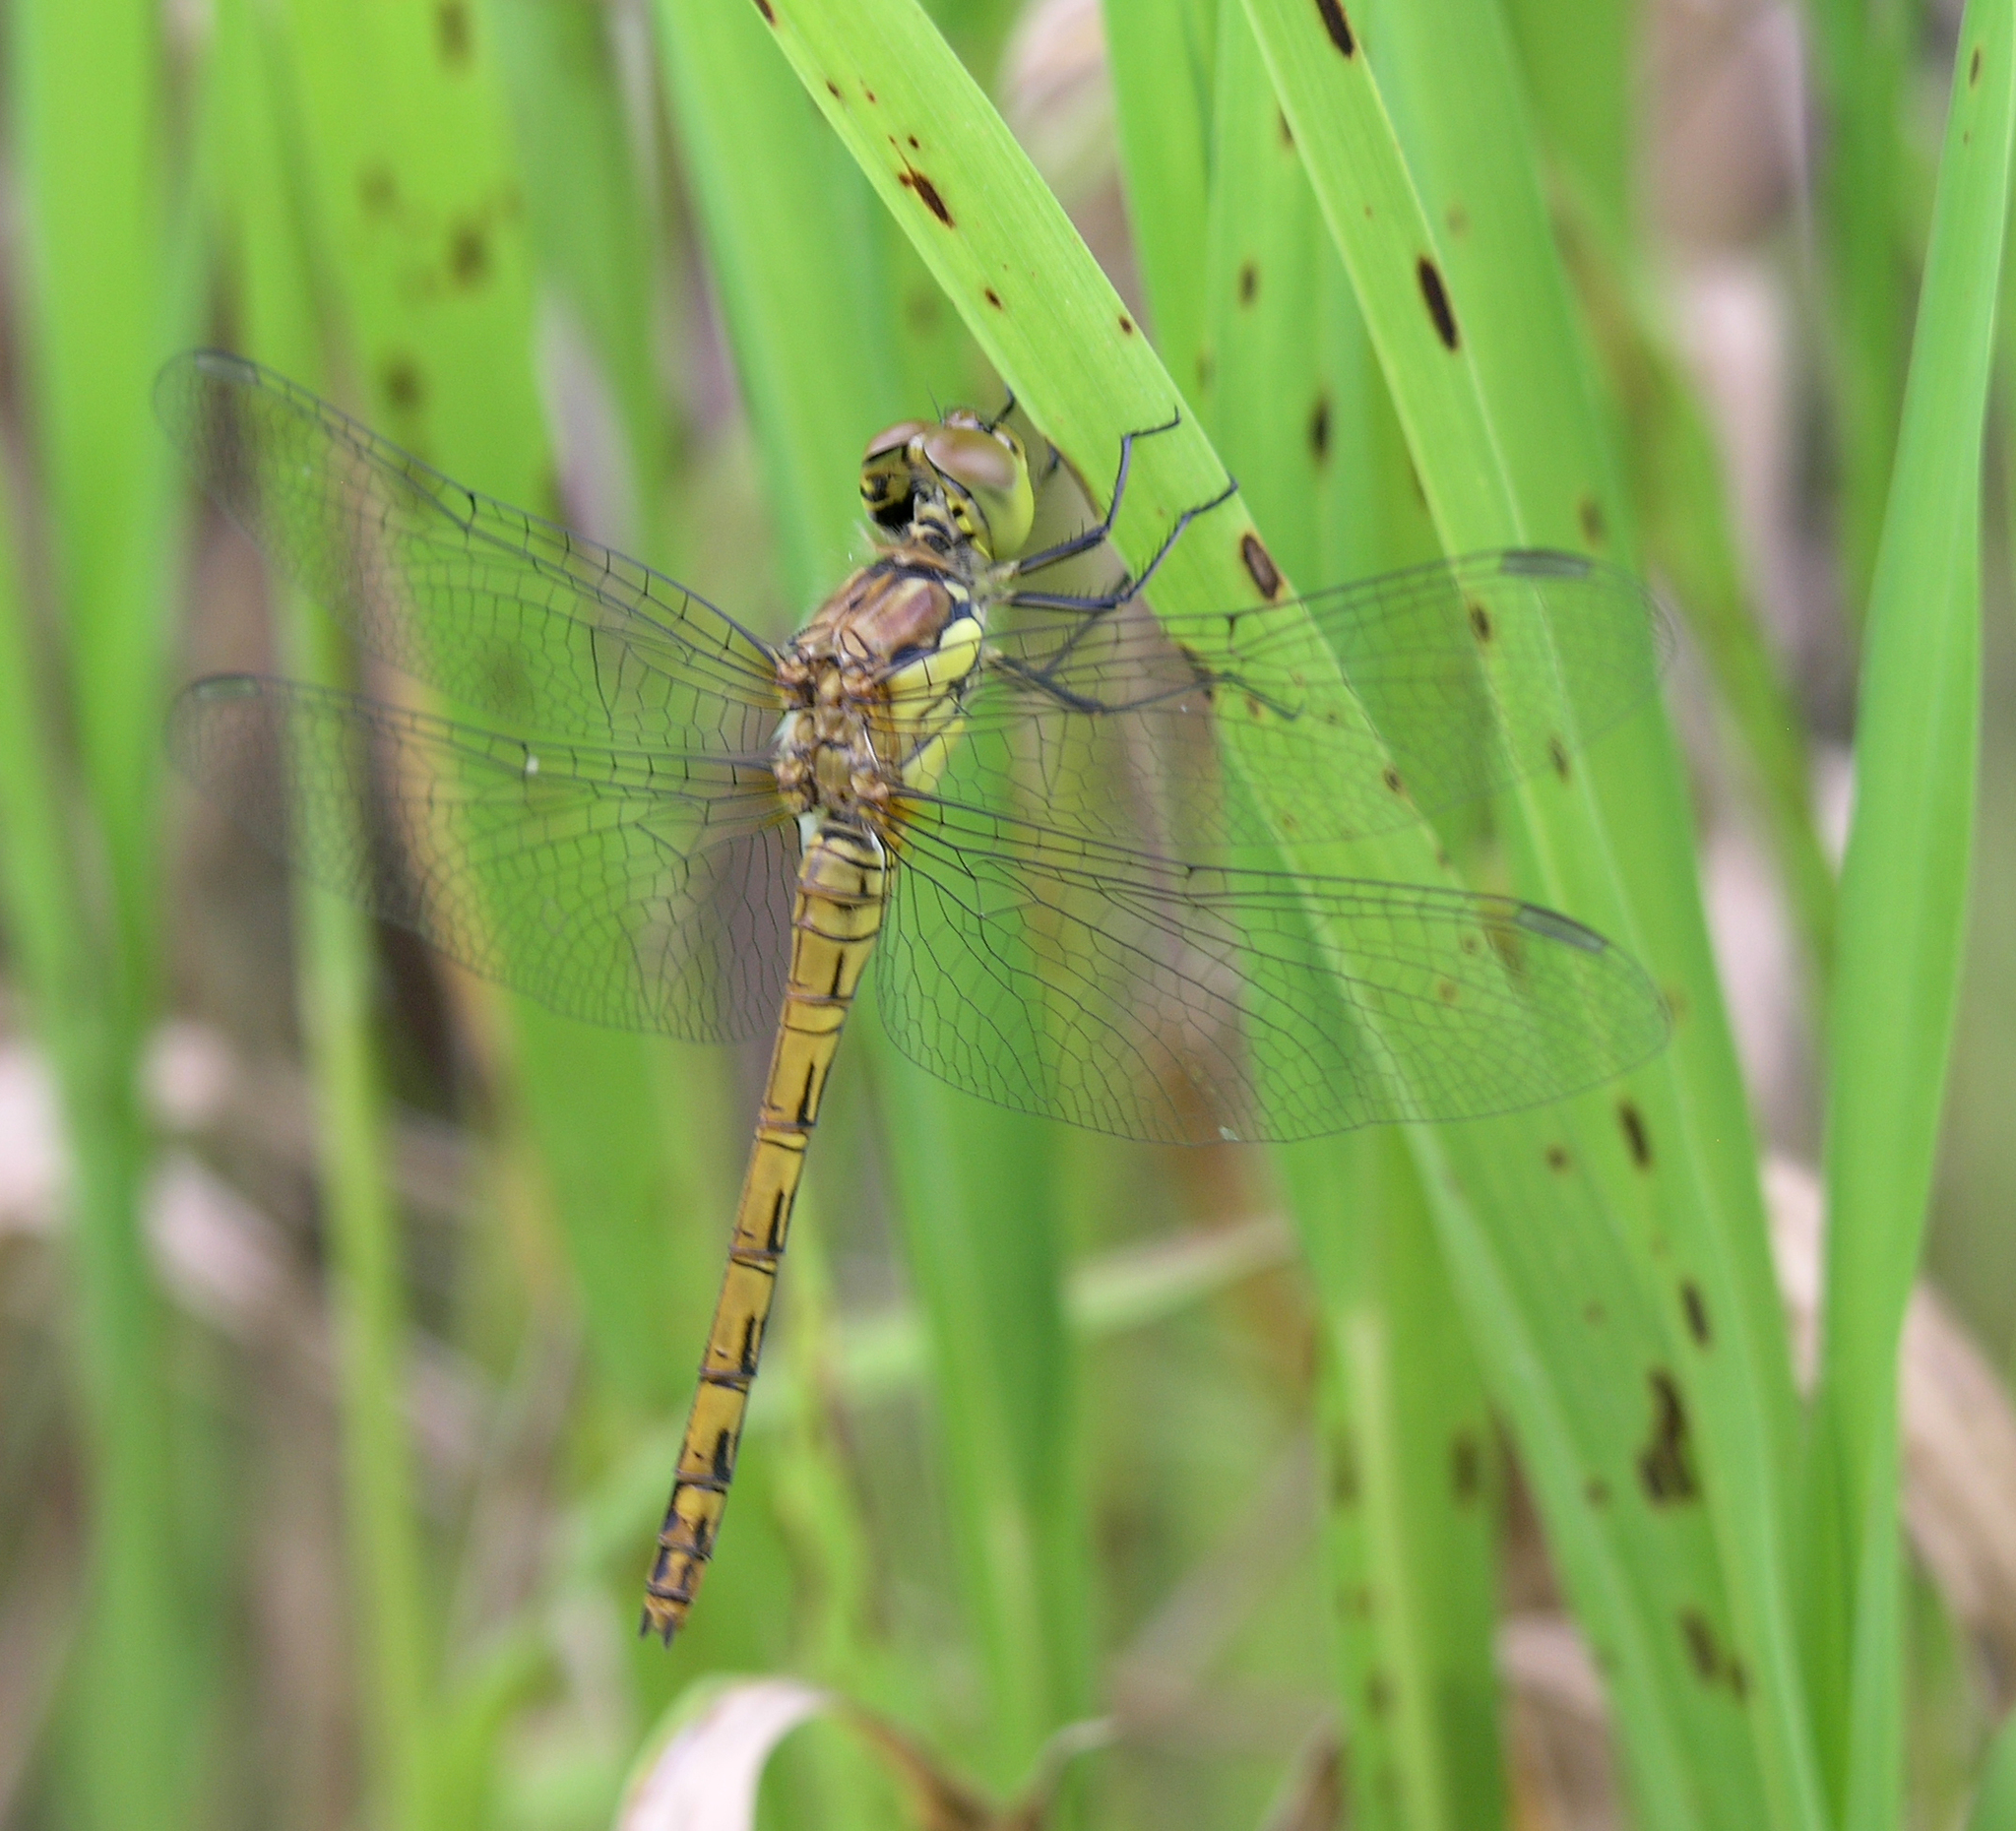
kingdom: Animalia
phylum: Arthropoda
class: Insecta
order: Odonata
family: Libellulidae
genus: Sympetrum
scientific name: Sympetrum striolatum
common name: Common darter
